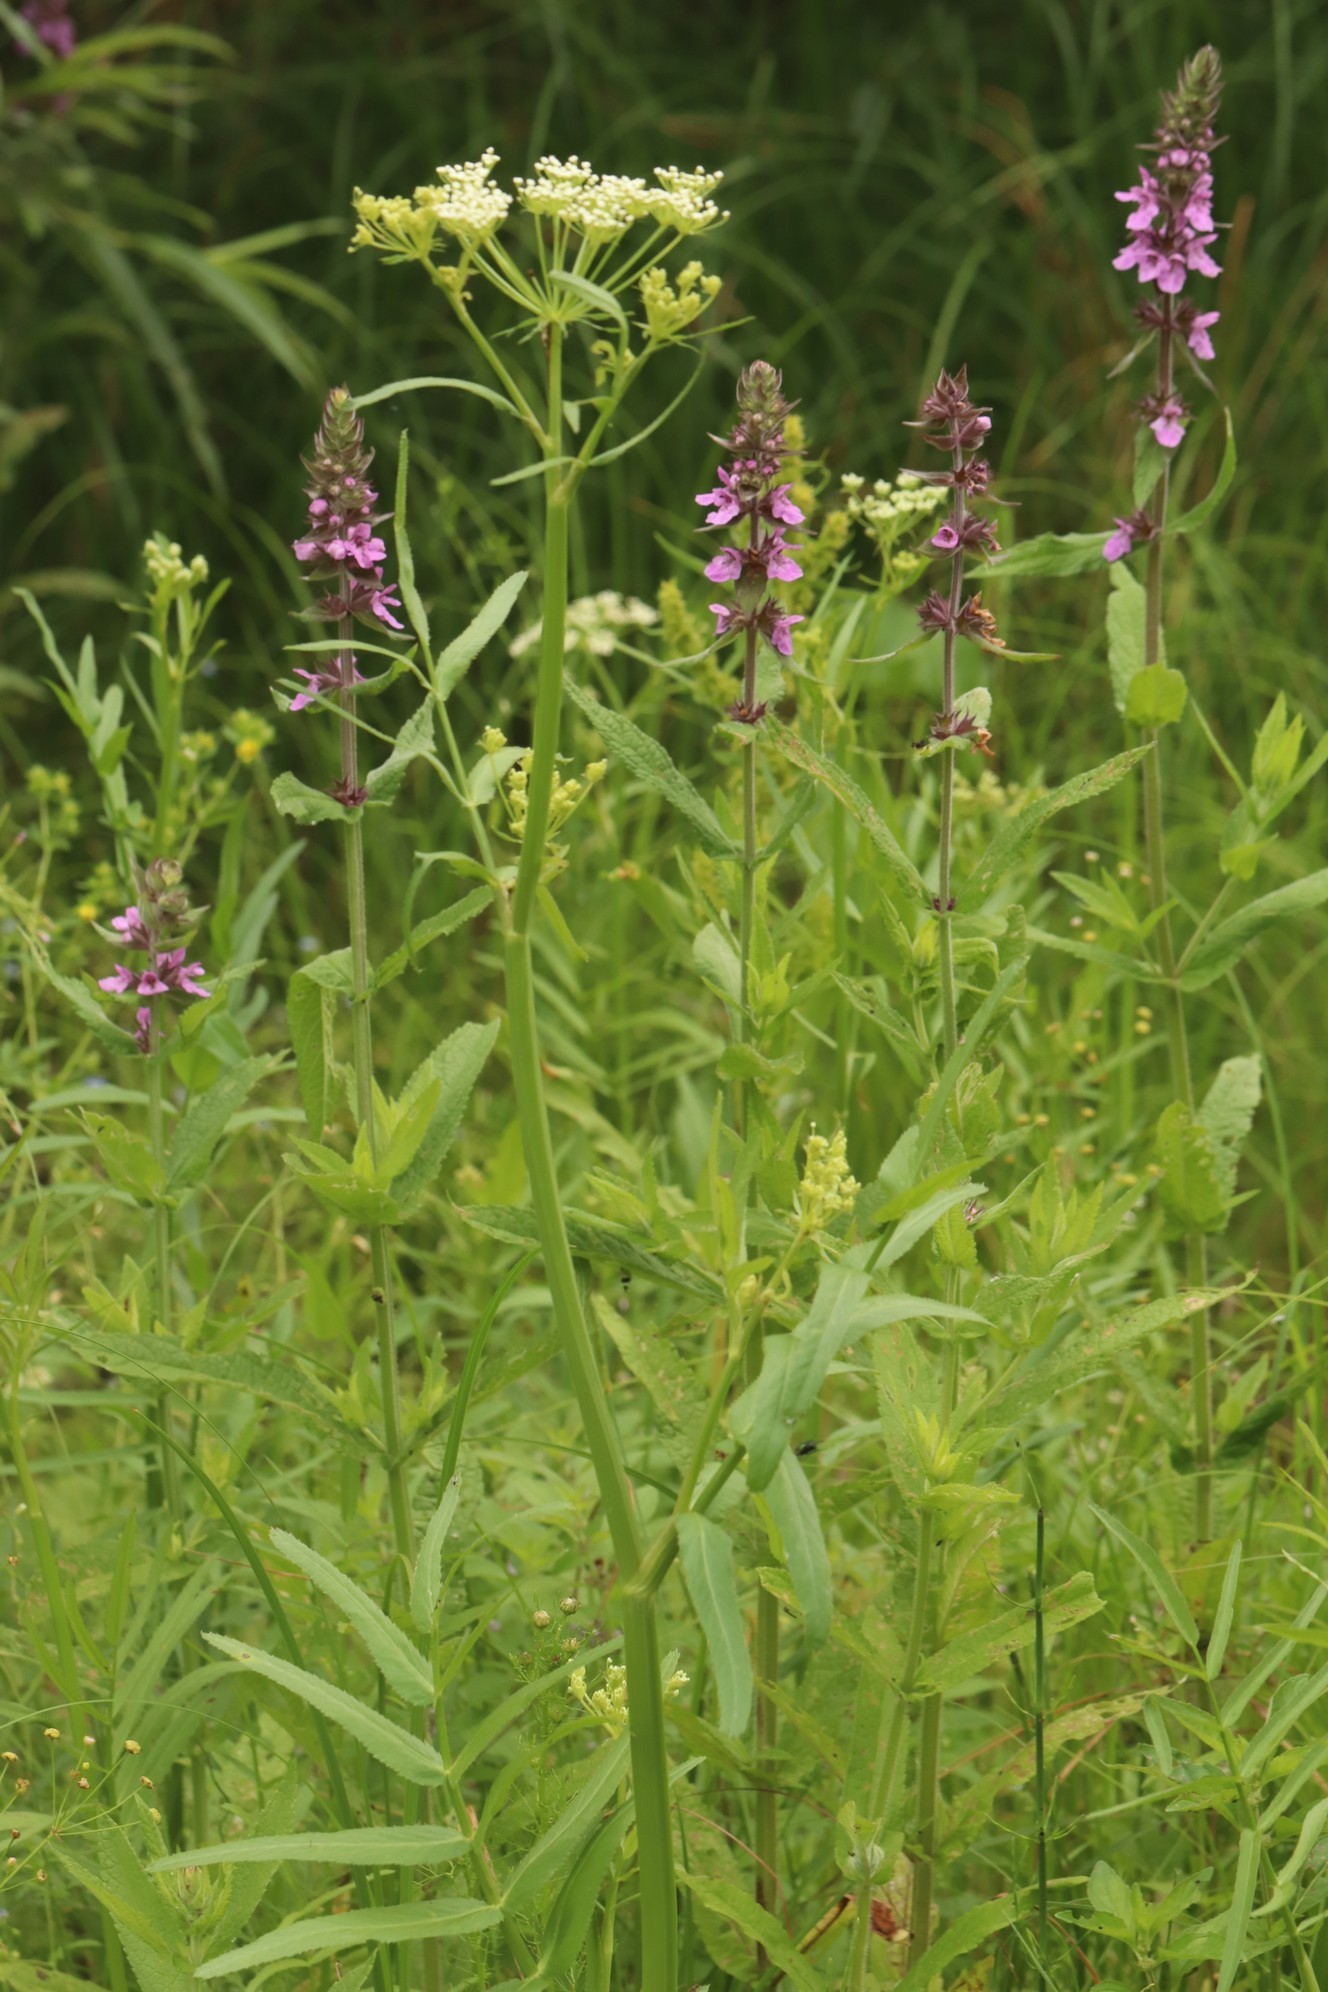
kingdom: Plantae
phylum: Tracheophyta
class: Magnoliopsida
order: Apiales
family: Apiaceae
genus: Sium
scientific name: Sium latifolium
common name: Greater water-parsnip
